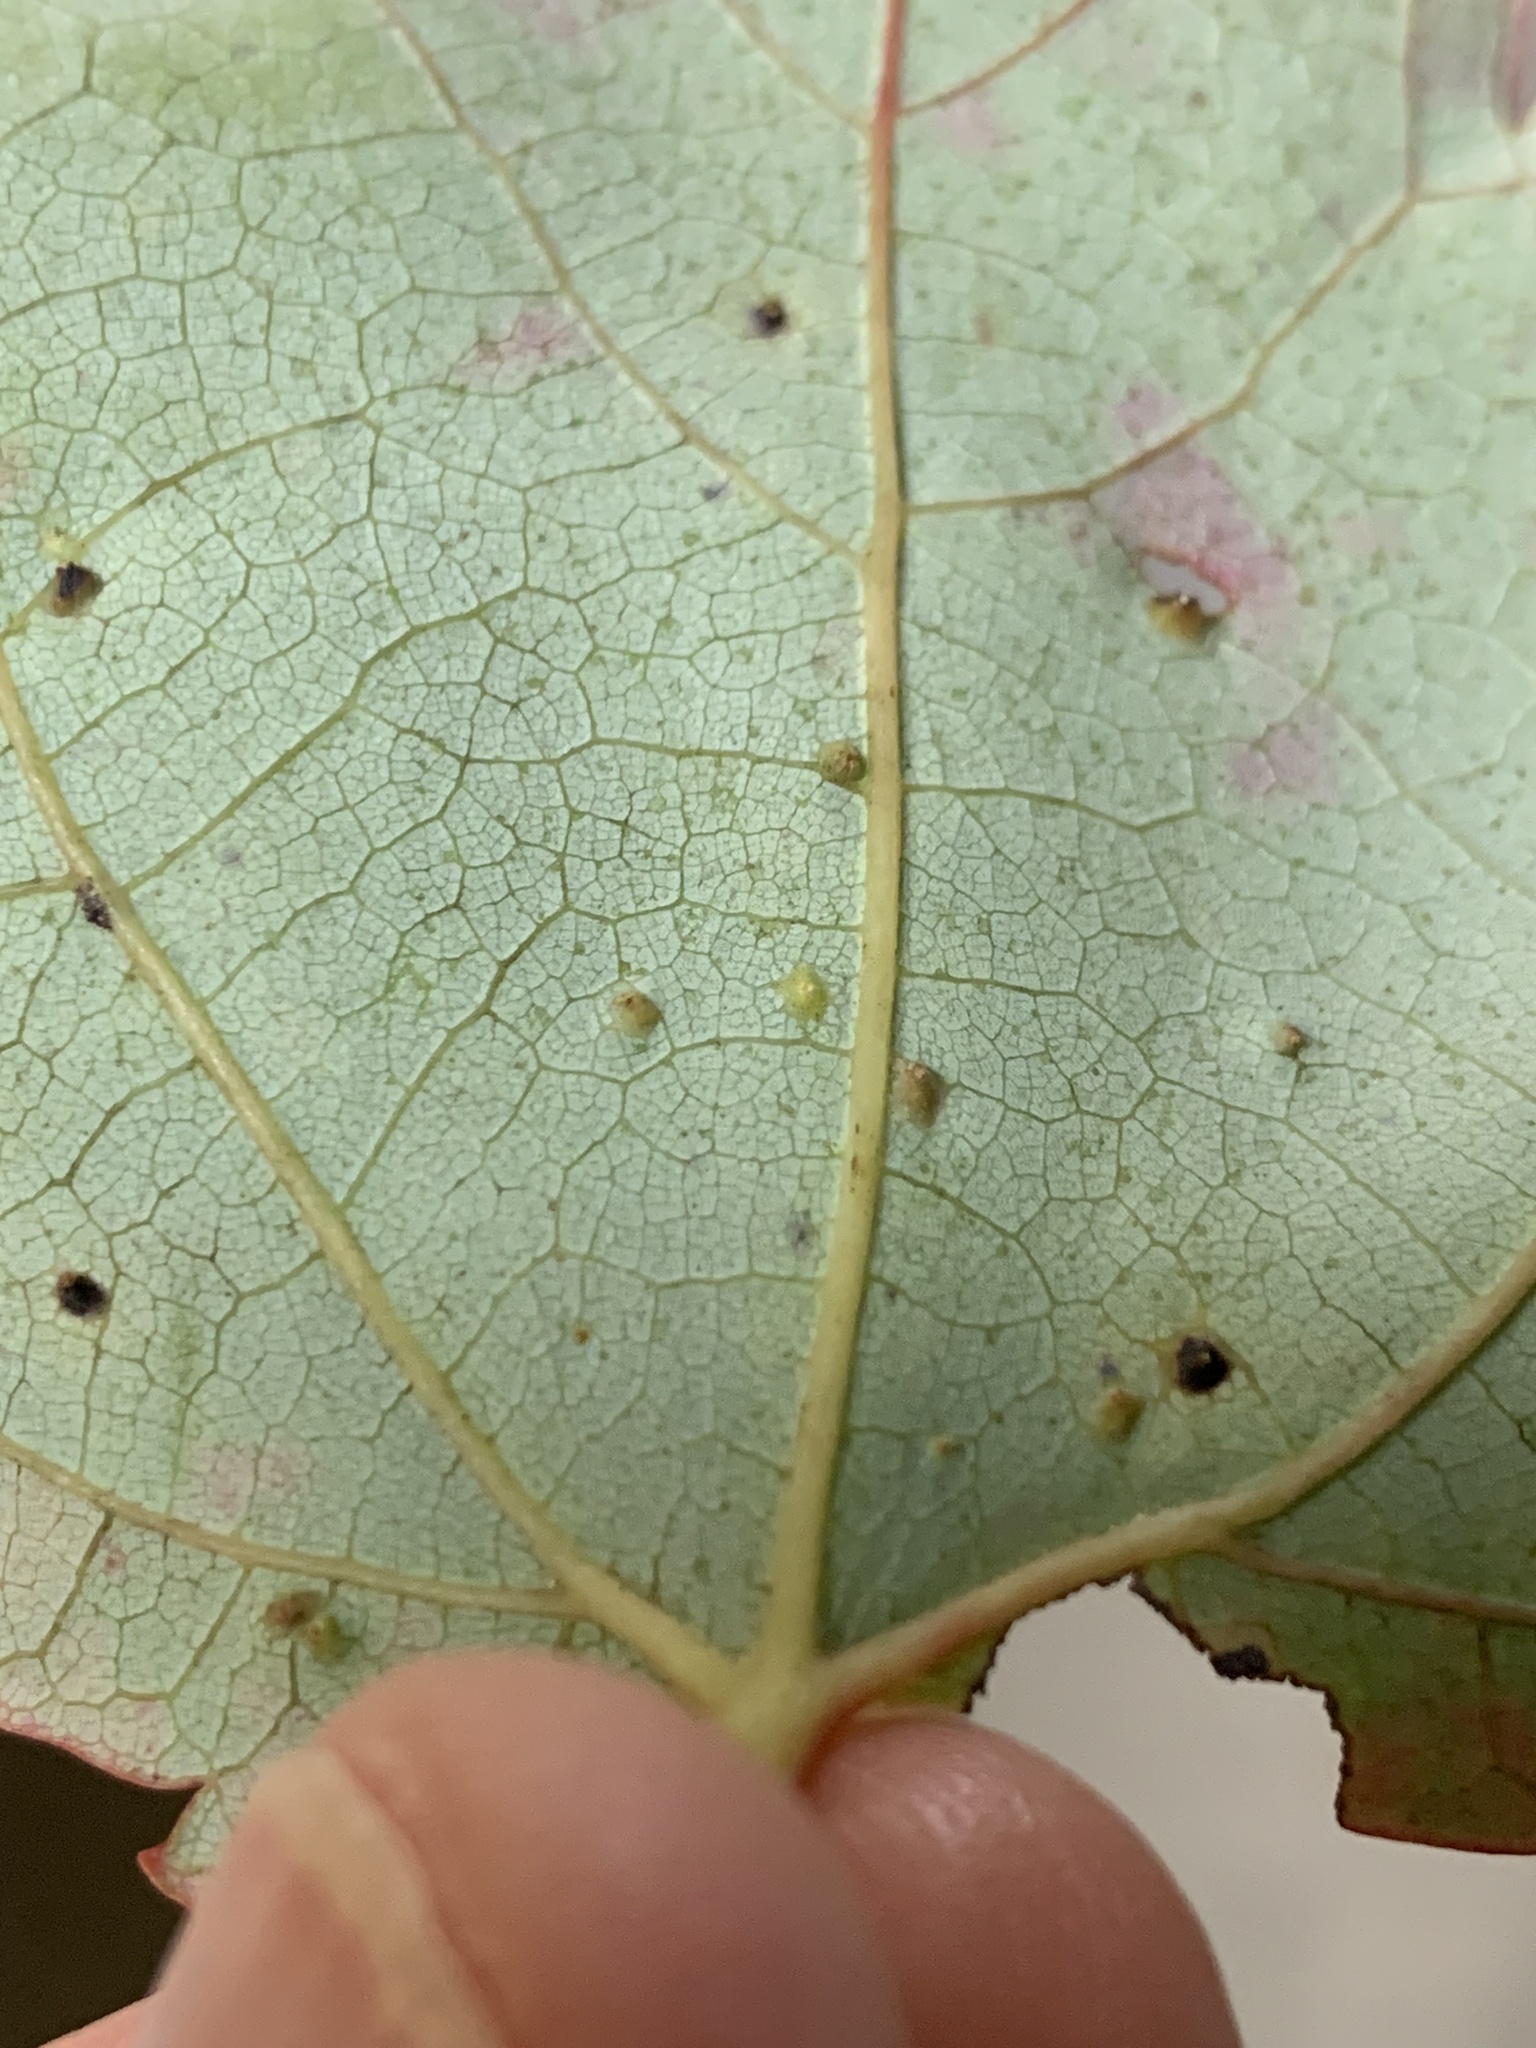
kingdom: Animalia
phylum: Arthropoda
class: Arachnida
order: Trombidiformes
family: Eriophyidae
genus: Vasates
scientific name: Vasates quadripedes
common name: Maple bladder gall mite
